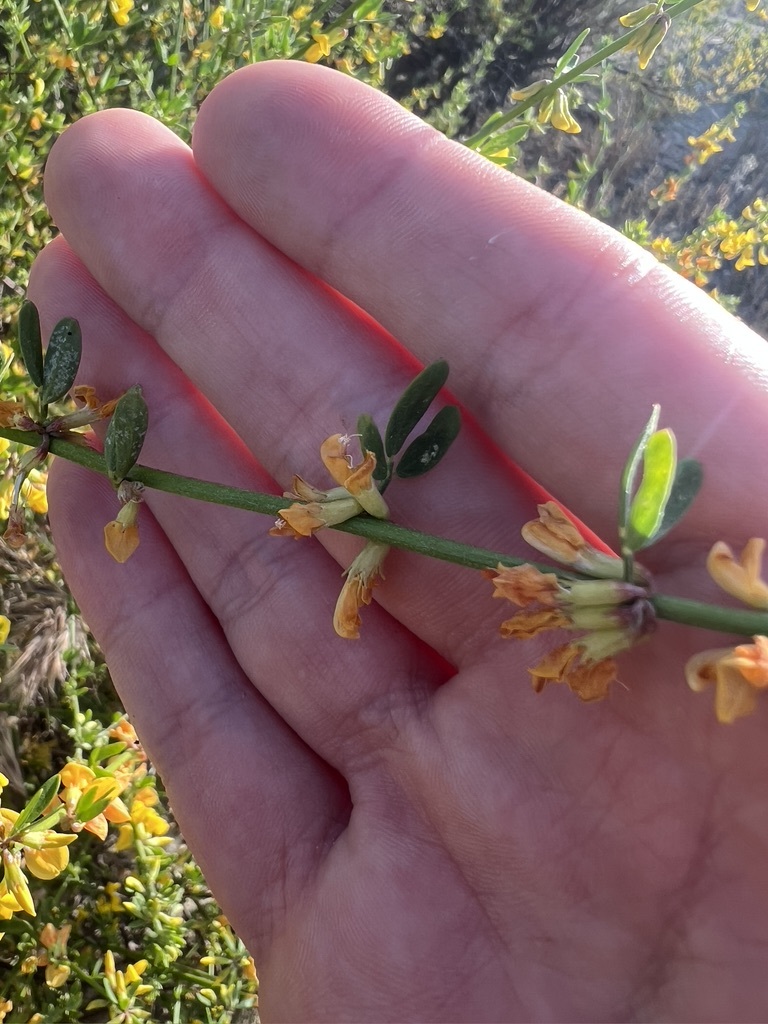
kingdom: Plantae
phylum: Tracheophyta
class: Magnoliopsida
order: Fabales
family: Fabaceae
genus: Acmispon
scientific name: Acmispon glaber
